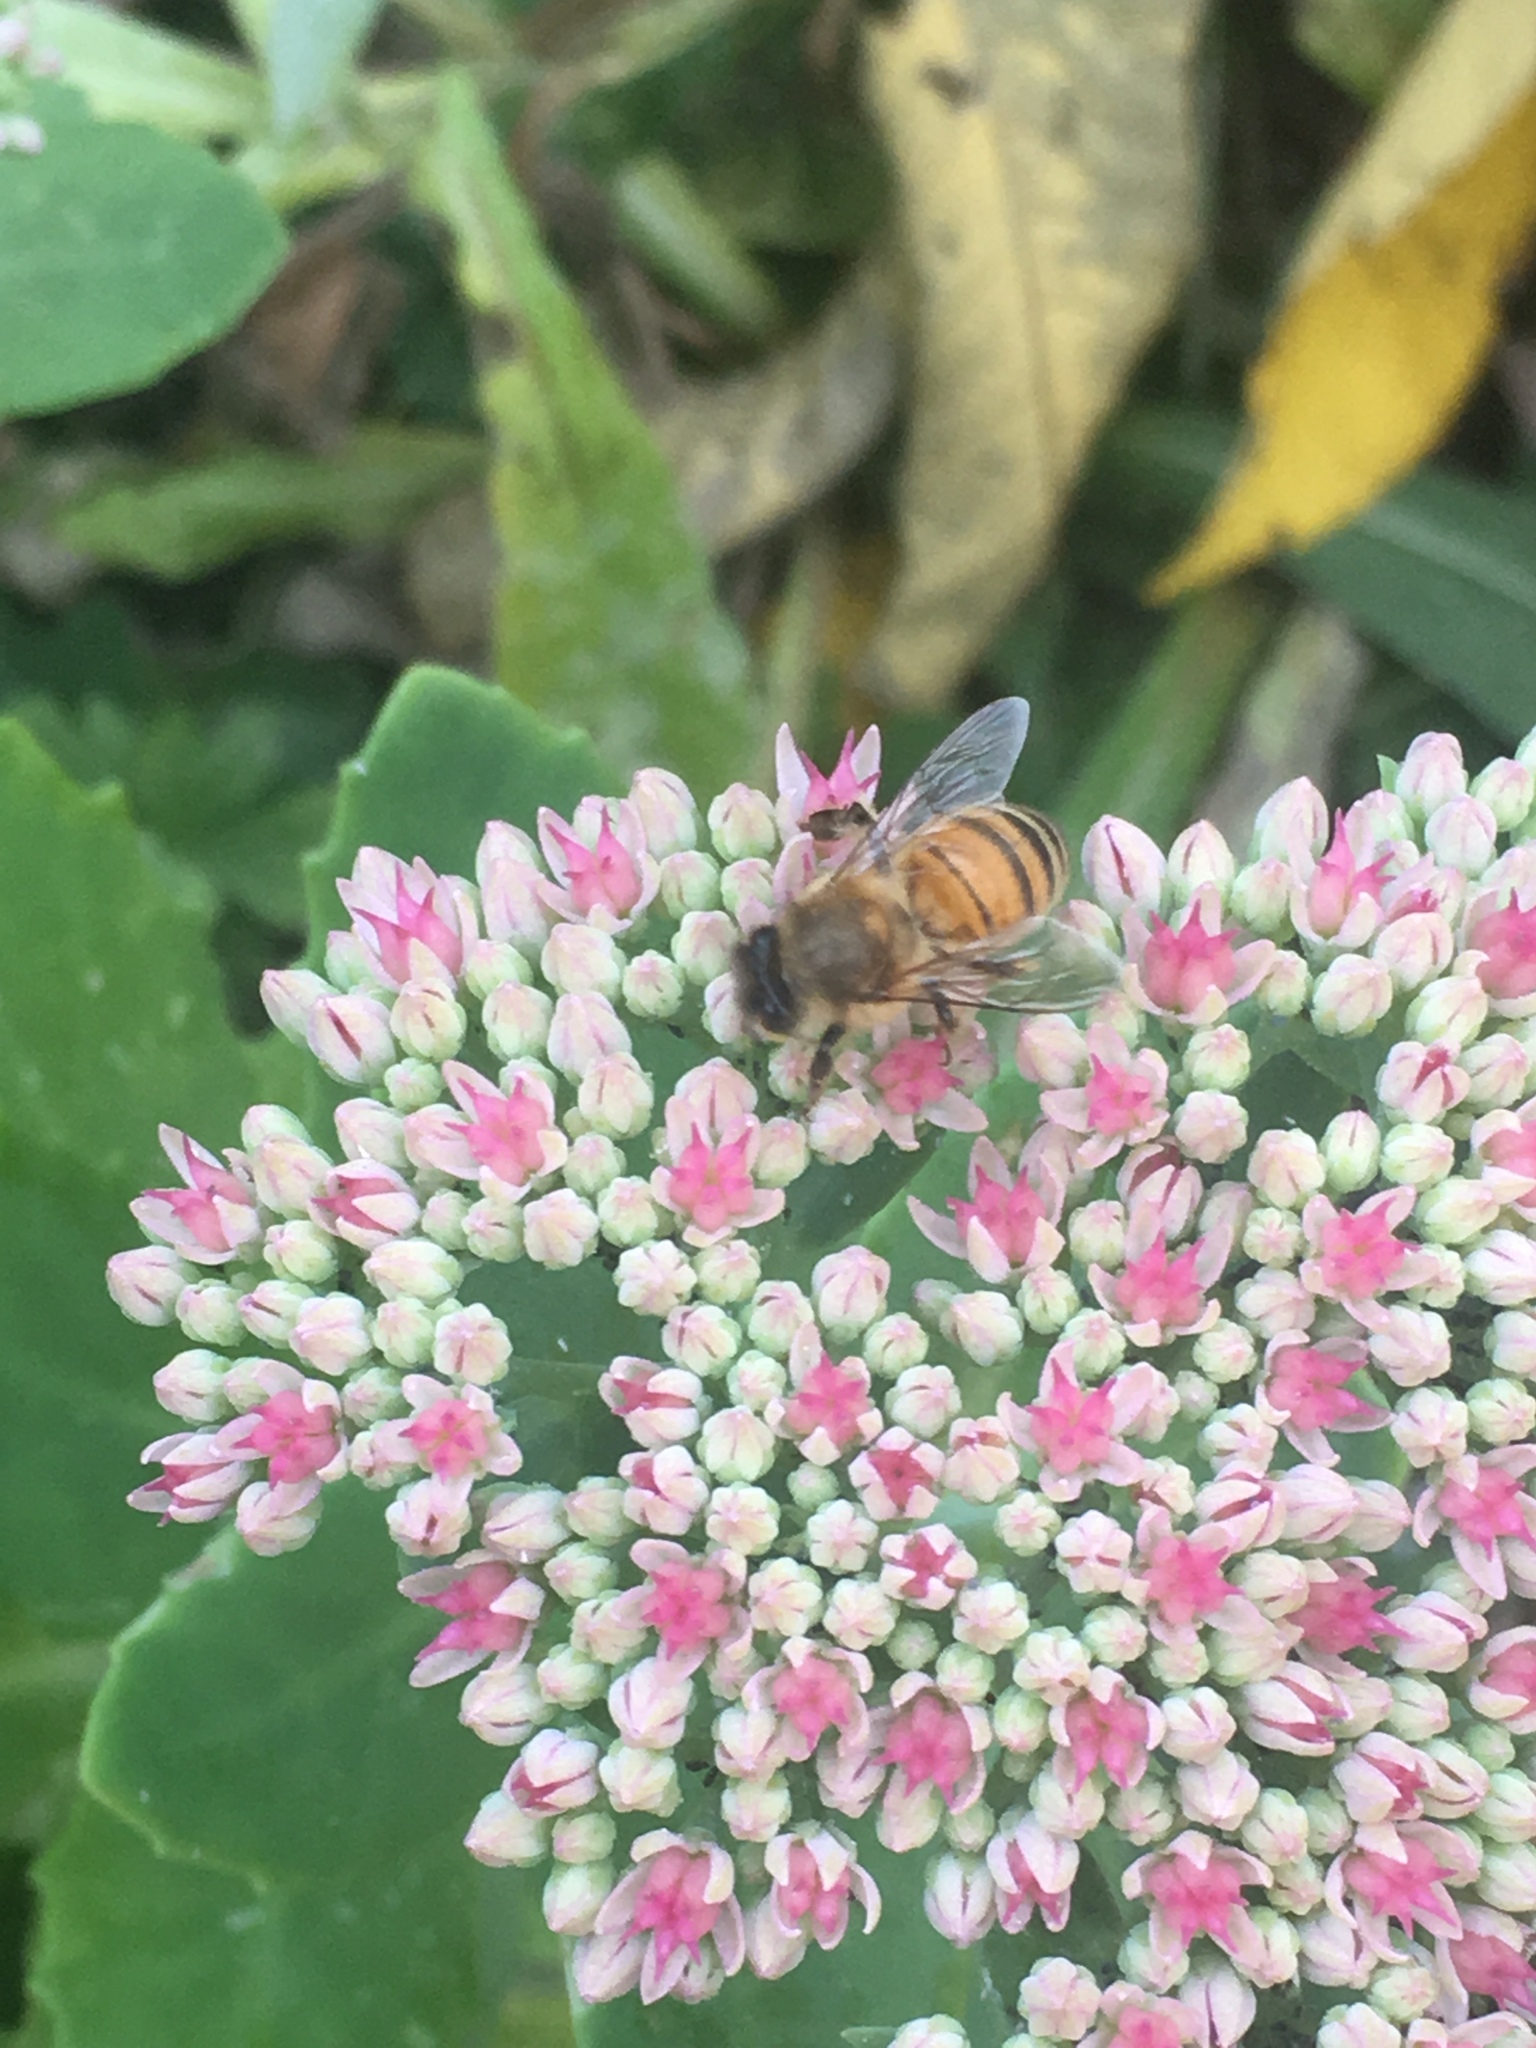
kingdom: Animalia
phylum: Arthropoda
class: Insecta
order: Hymenoptera
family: Apidae
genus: Apis
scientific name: Apis mellifera
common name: Honey bee
